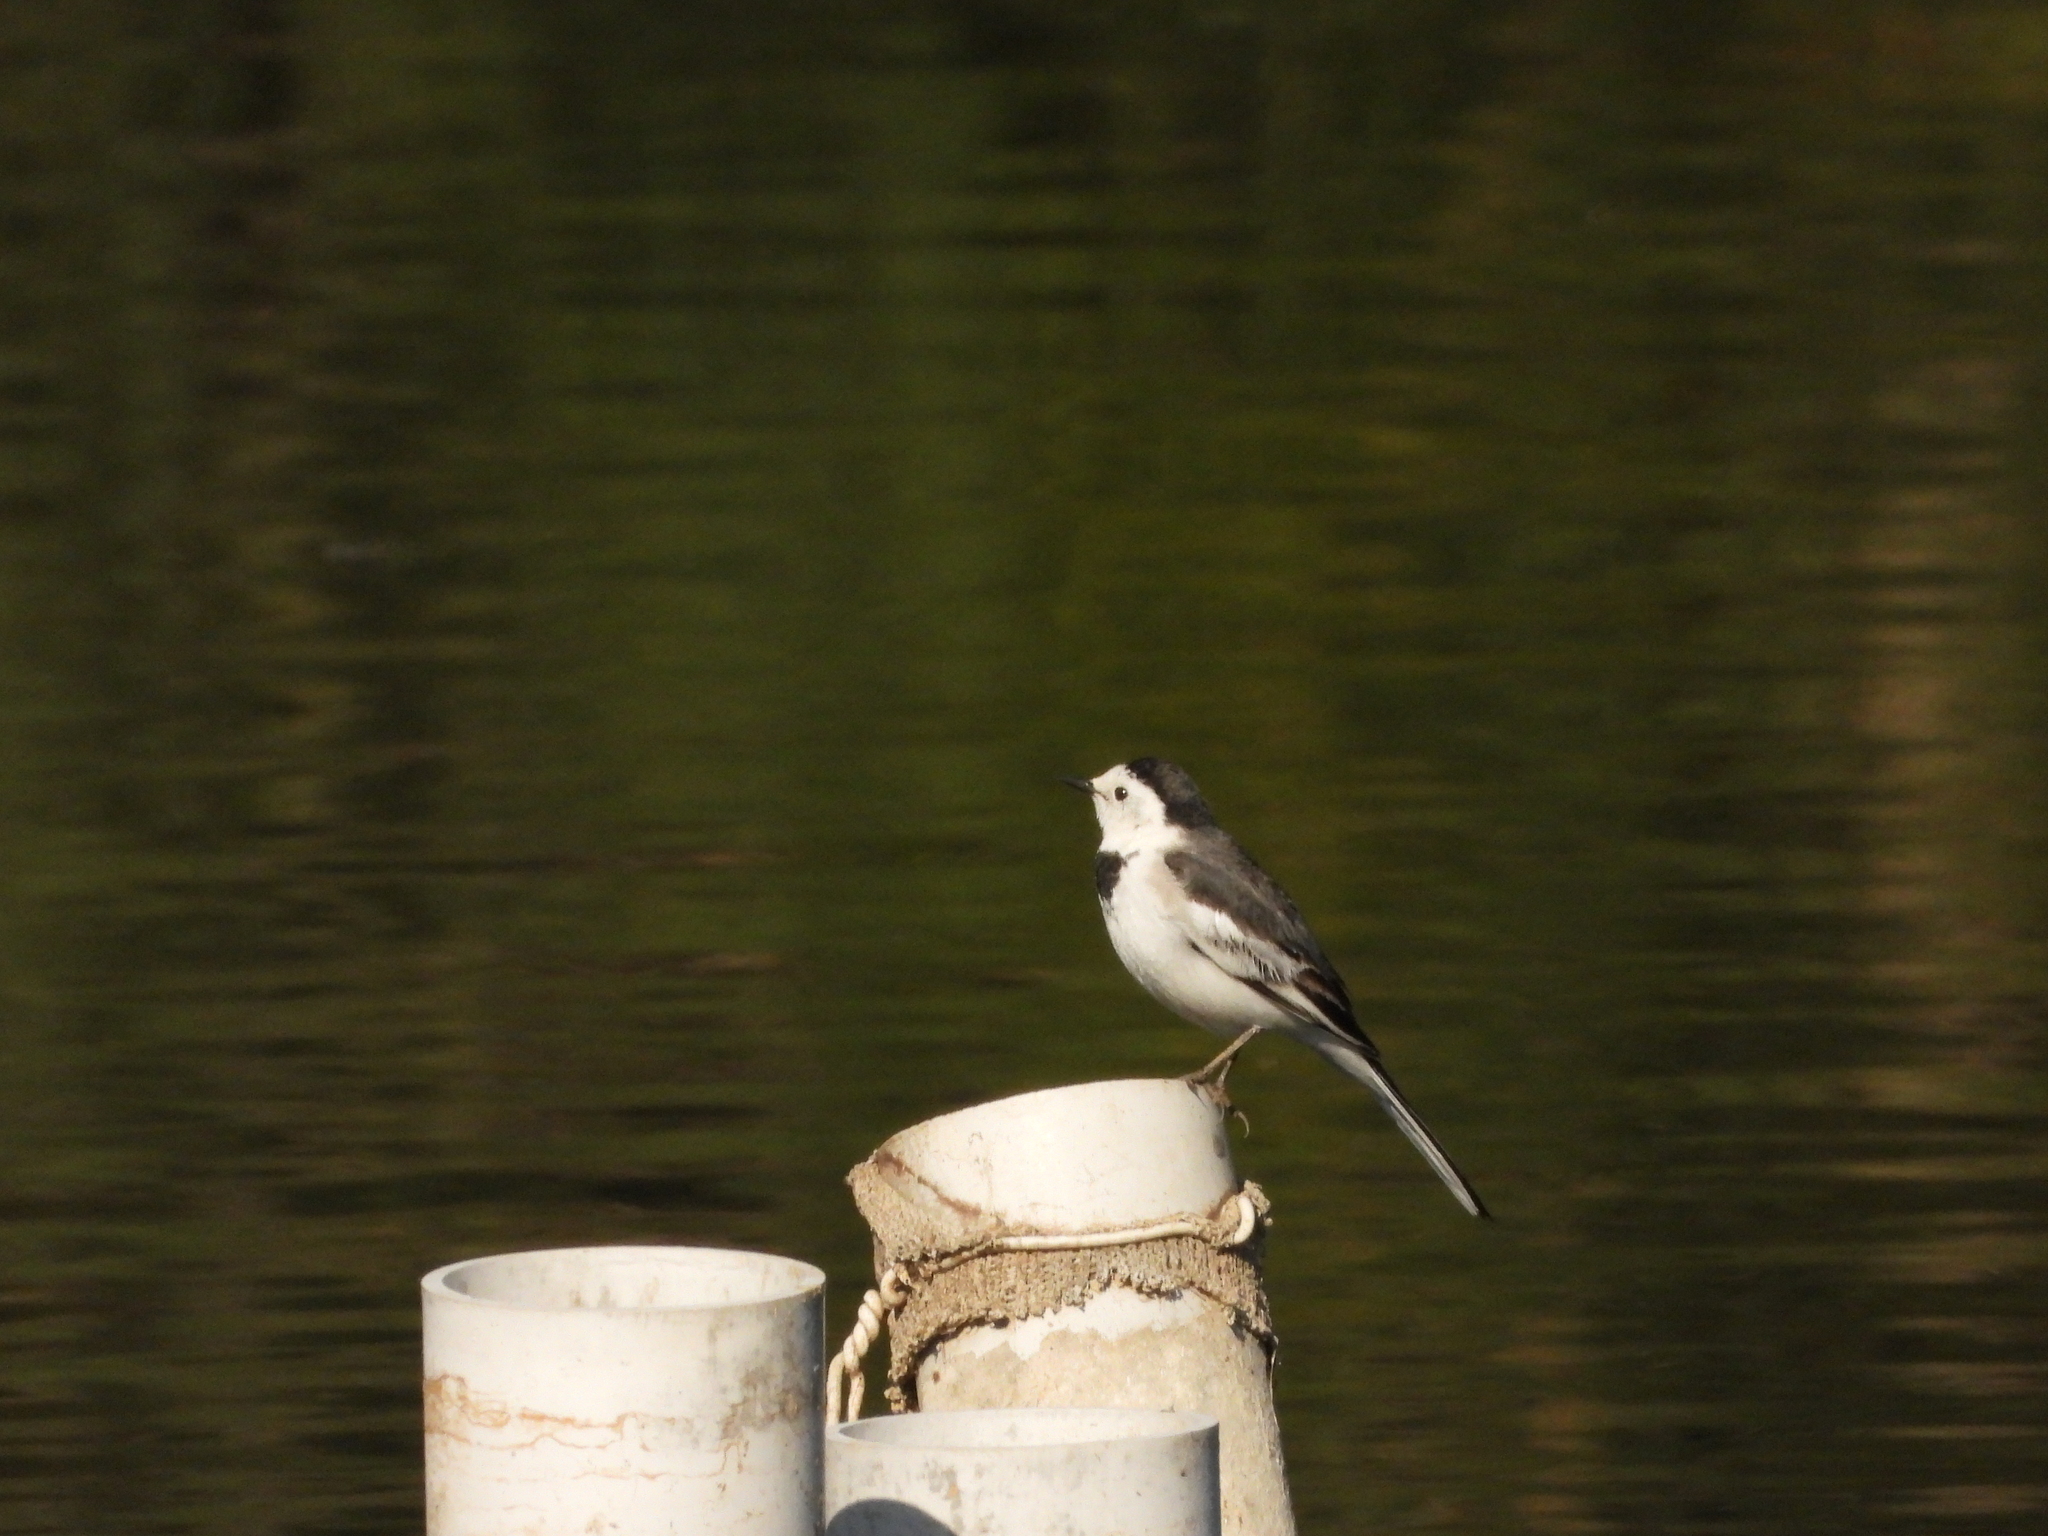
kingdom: Animalia
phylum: Chordata
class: Aves
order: Passeriformes
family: Motacillidae
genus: Motacilla
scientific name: Motacilla alba
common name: White wagtail
